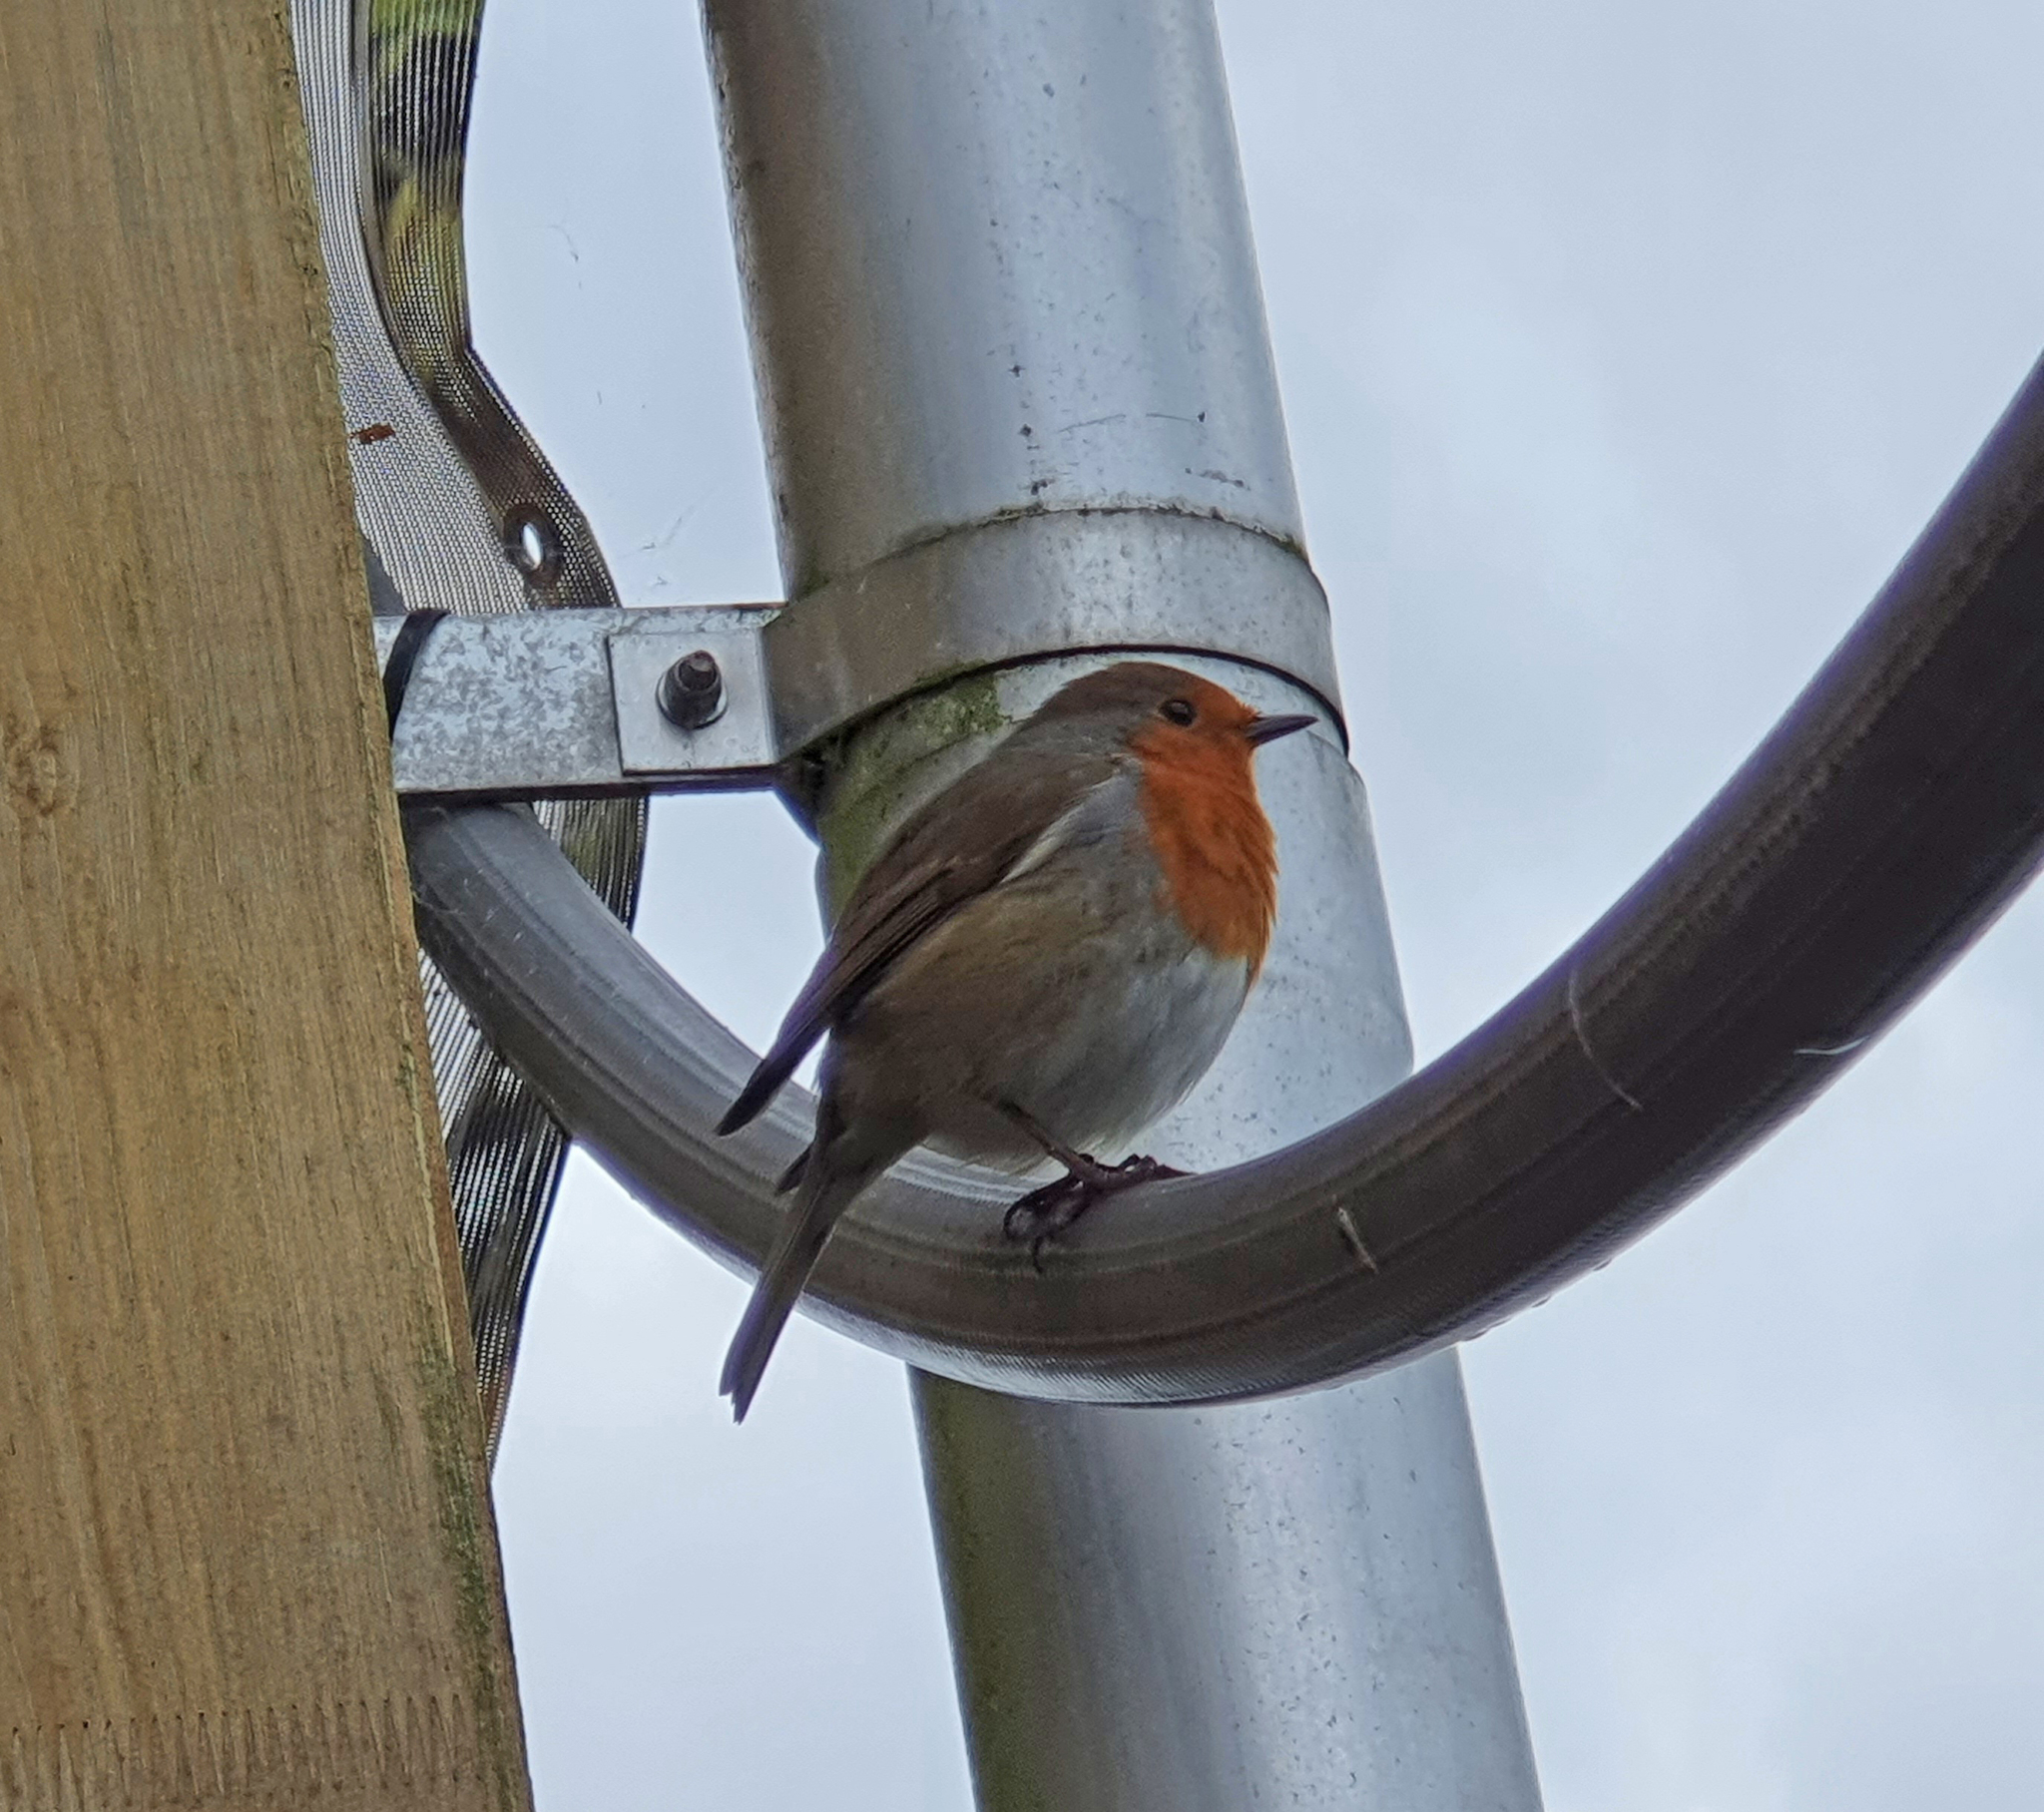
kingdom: Animalia
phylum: Chordata
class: Aves
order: Passeriformes
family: Muscicapidae
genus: Erithacus
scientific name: Erithacus rubecula
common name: European robin
